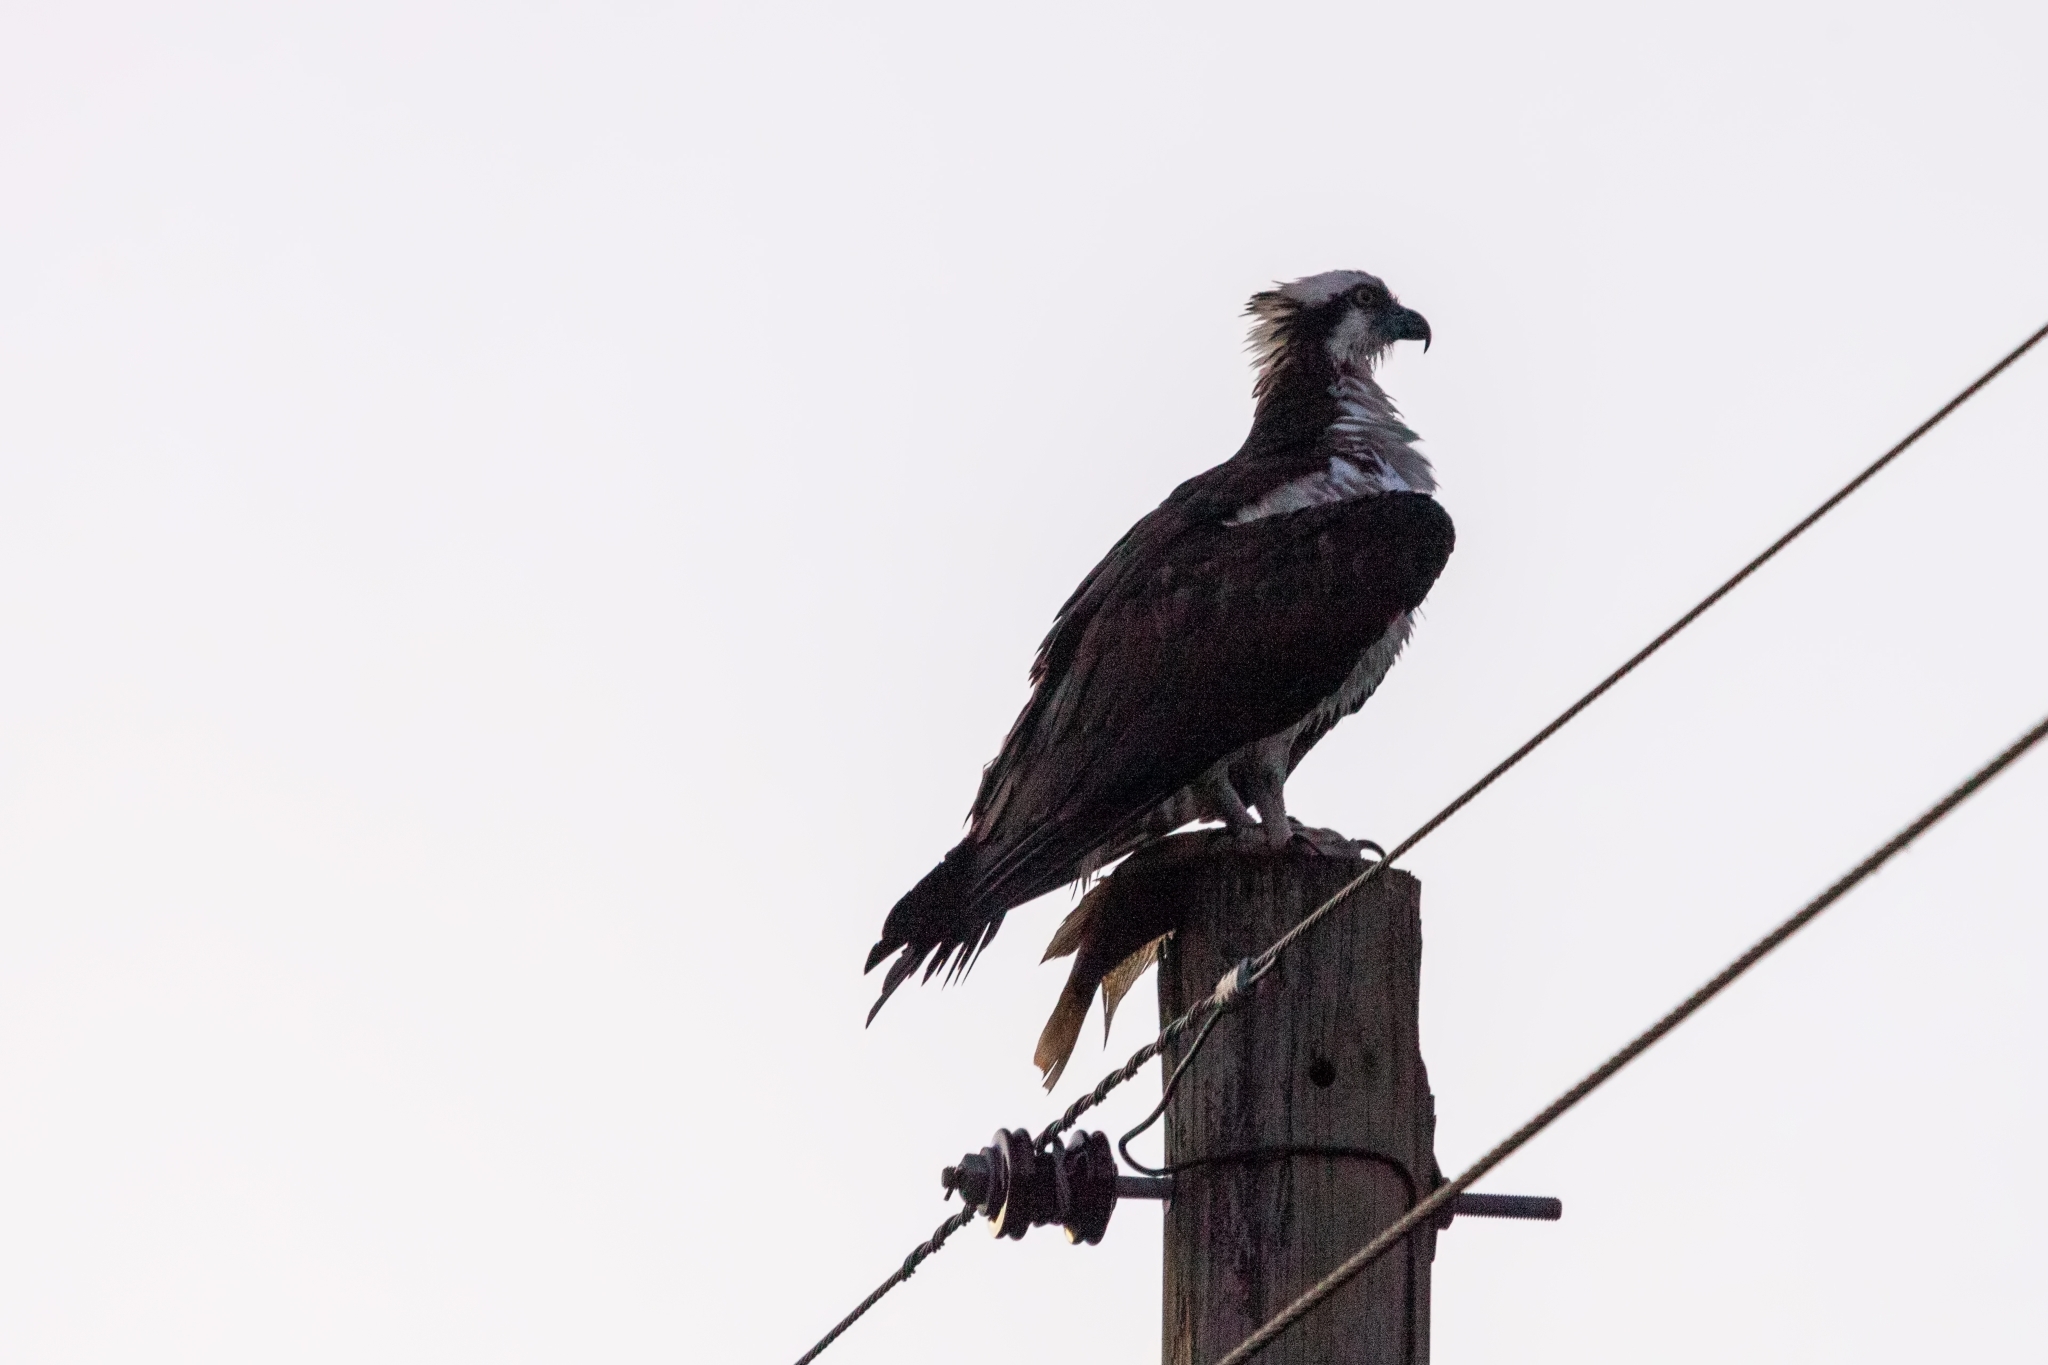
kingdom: Animalia
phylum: Chordata
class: Aves
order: Accipitriformes
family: Pandionidae
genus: Pandion
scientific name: Pandion haliaetus
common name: Osprey
